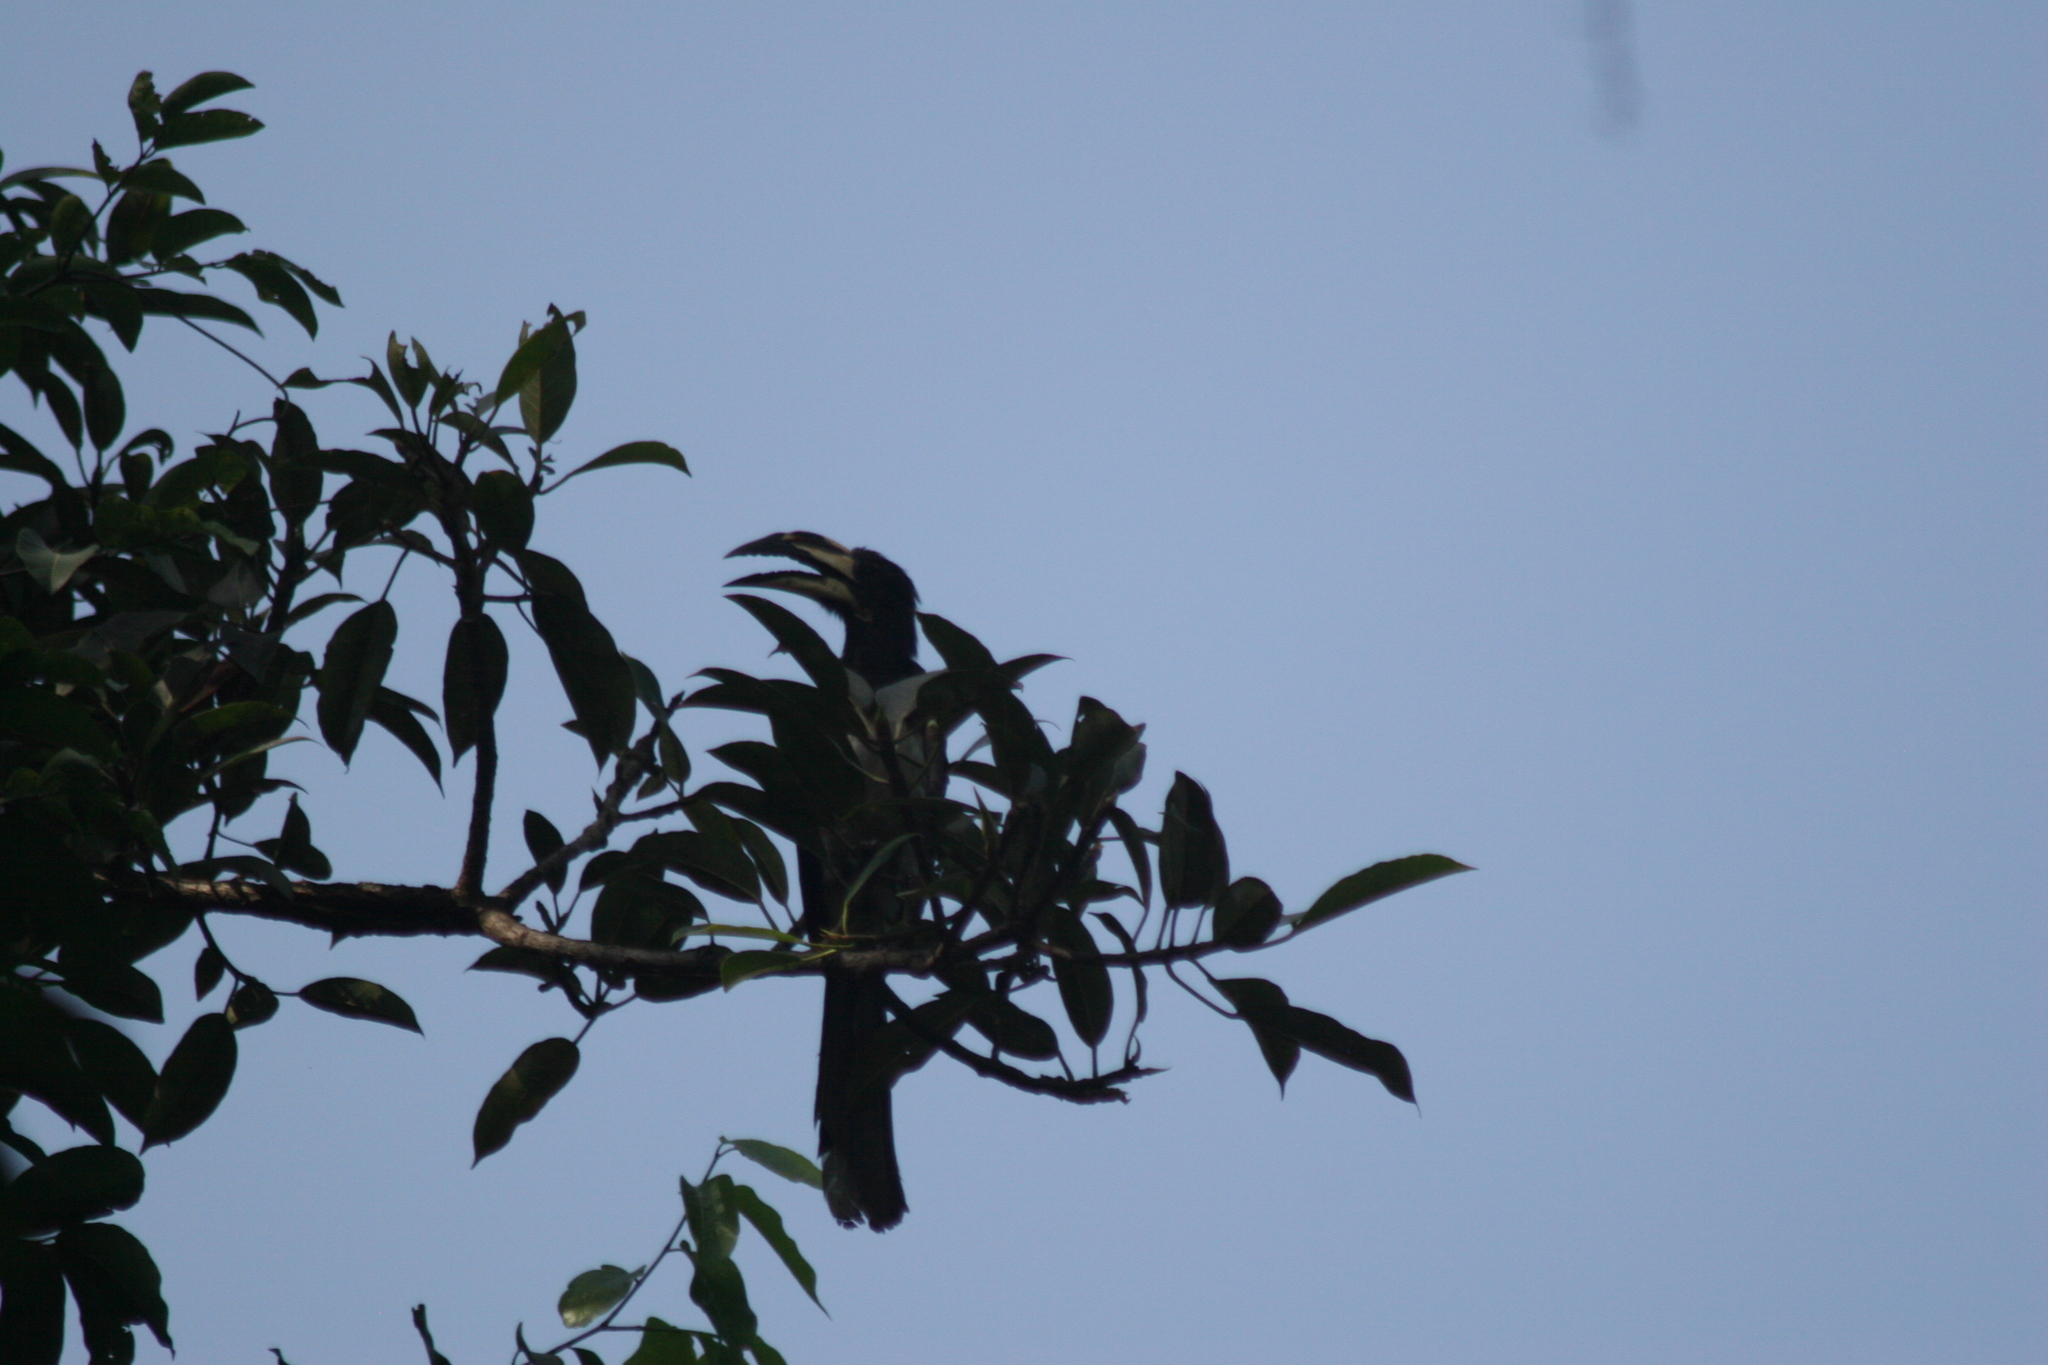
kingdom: Animalia
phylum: Chordata
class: Aves
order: Bucerotiformes
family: Bucerotidae
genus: Lophoceros
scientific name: Lophoceros fasciatus
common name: African pied hornbill
